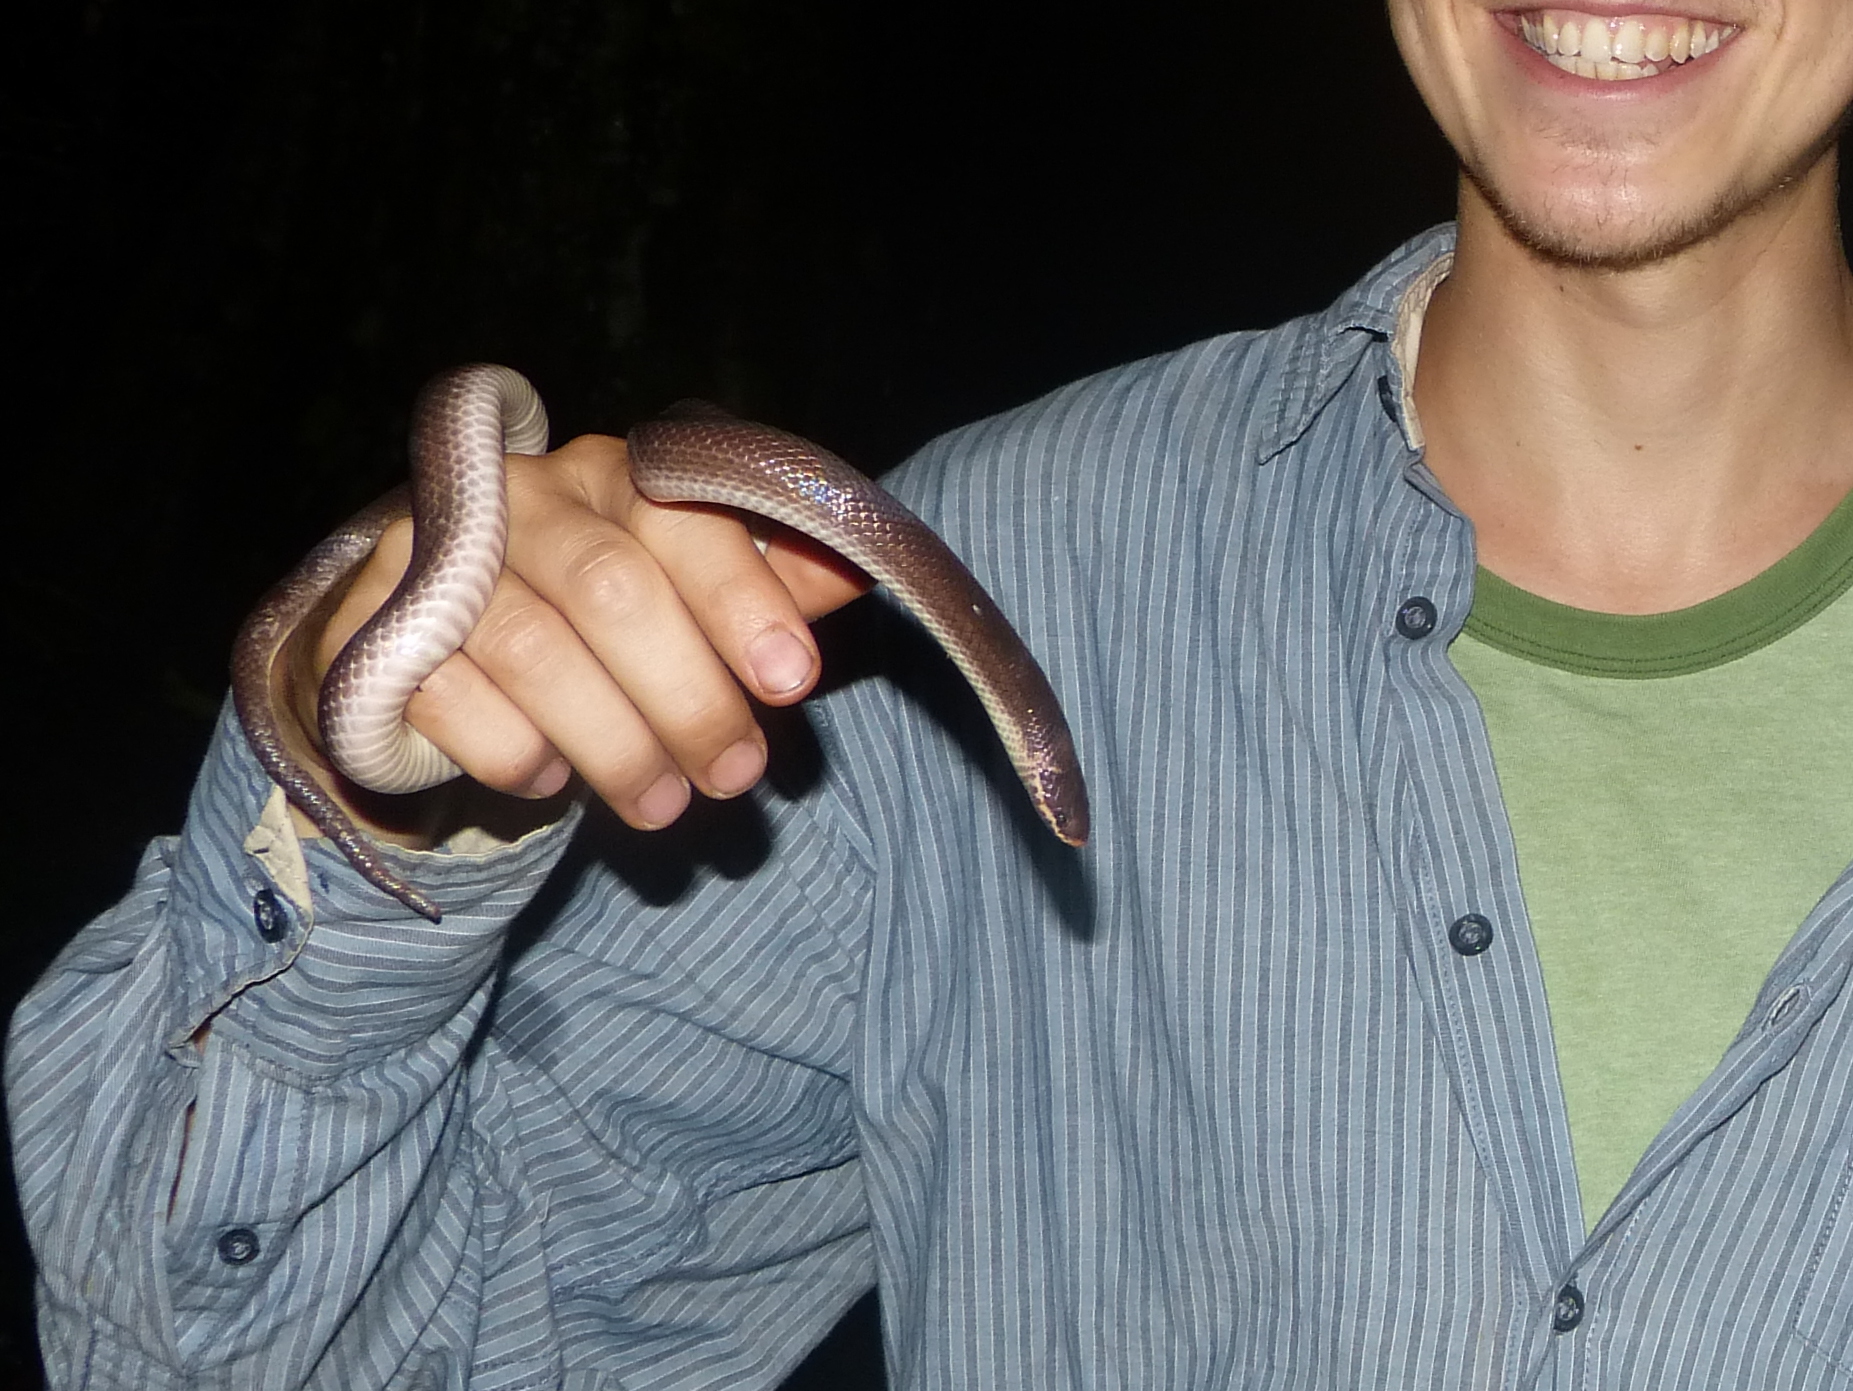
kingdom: Animalia
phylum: Chordata
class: Squamata
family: Pseudoxyrhophiidae
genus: Pseudoxyrhopus
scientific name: Pseudoxyrhopus ambreensis
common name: Ambre brook snake
